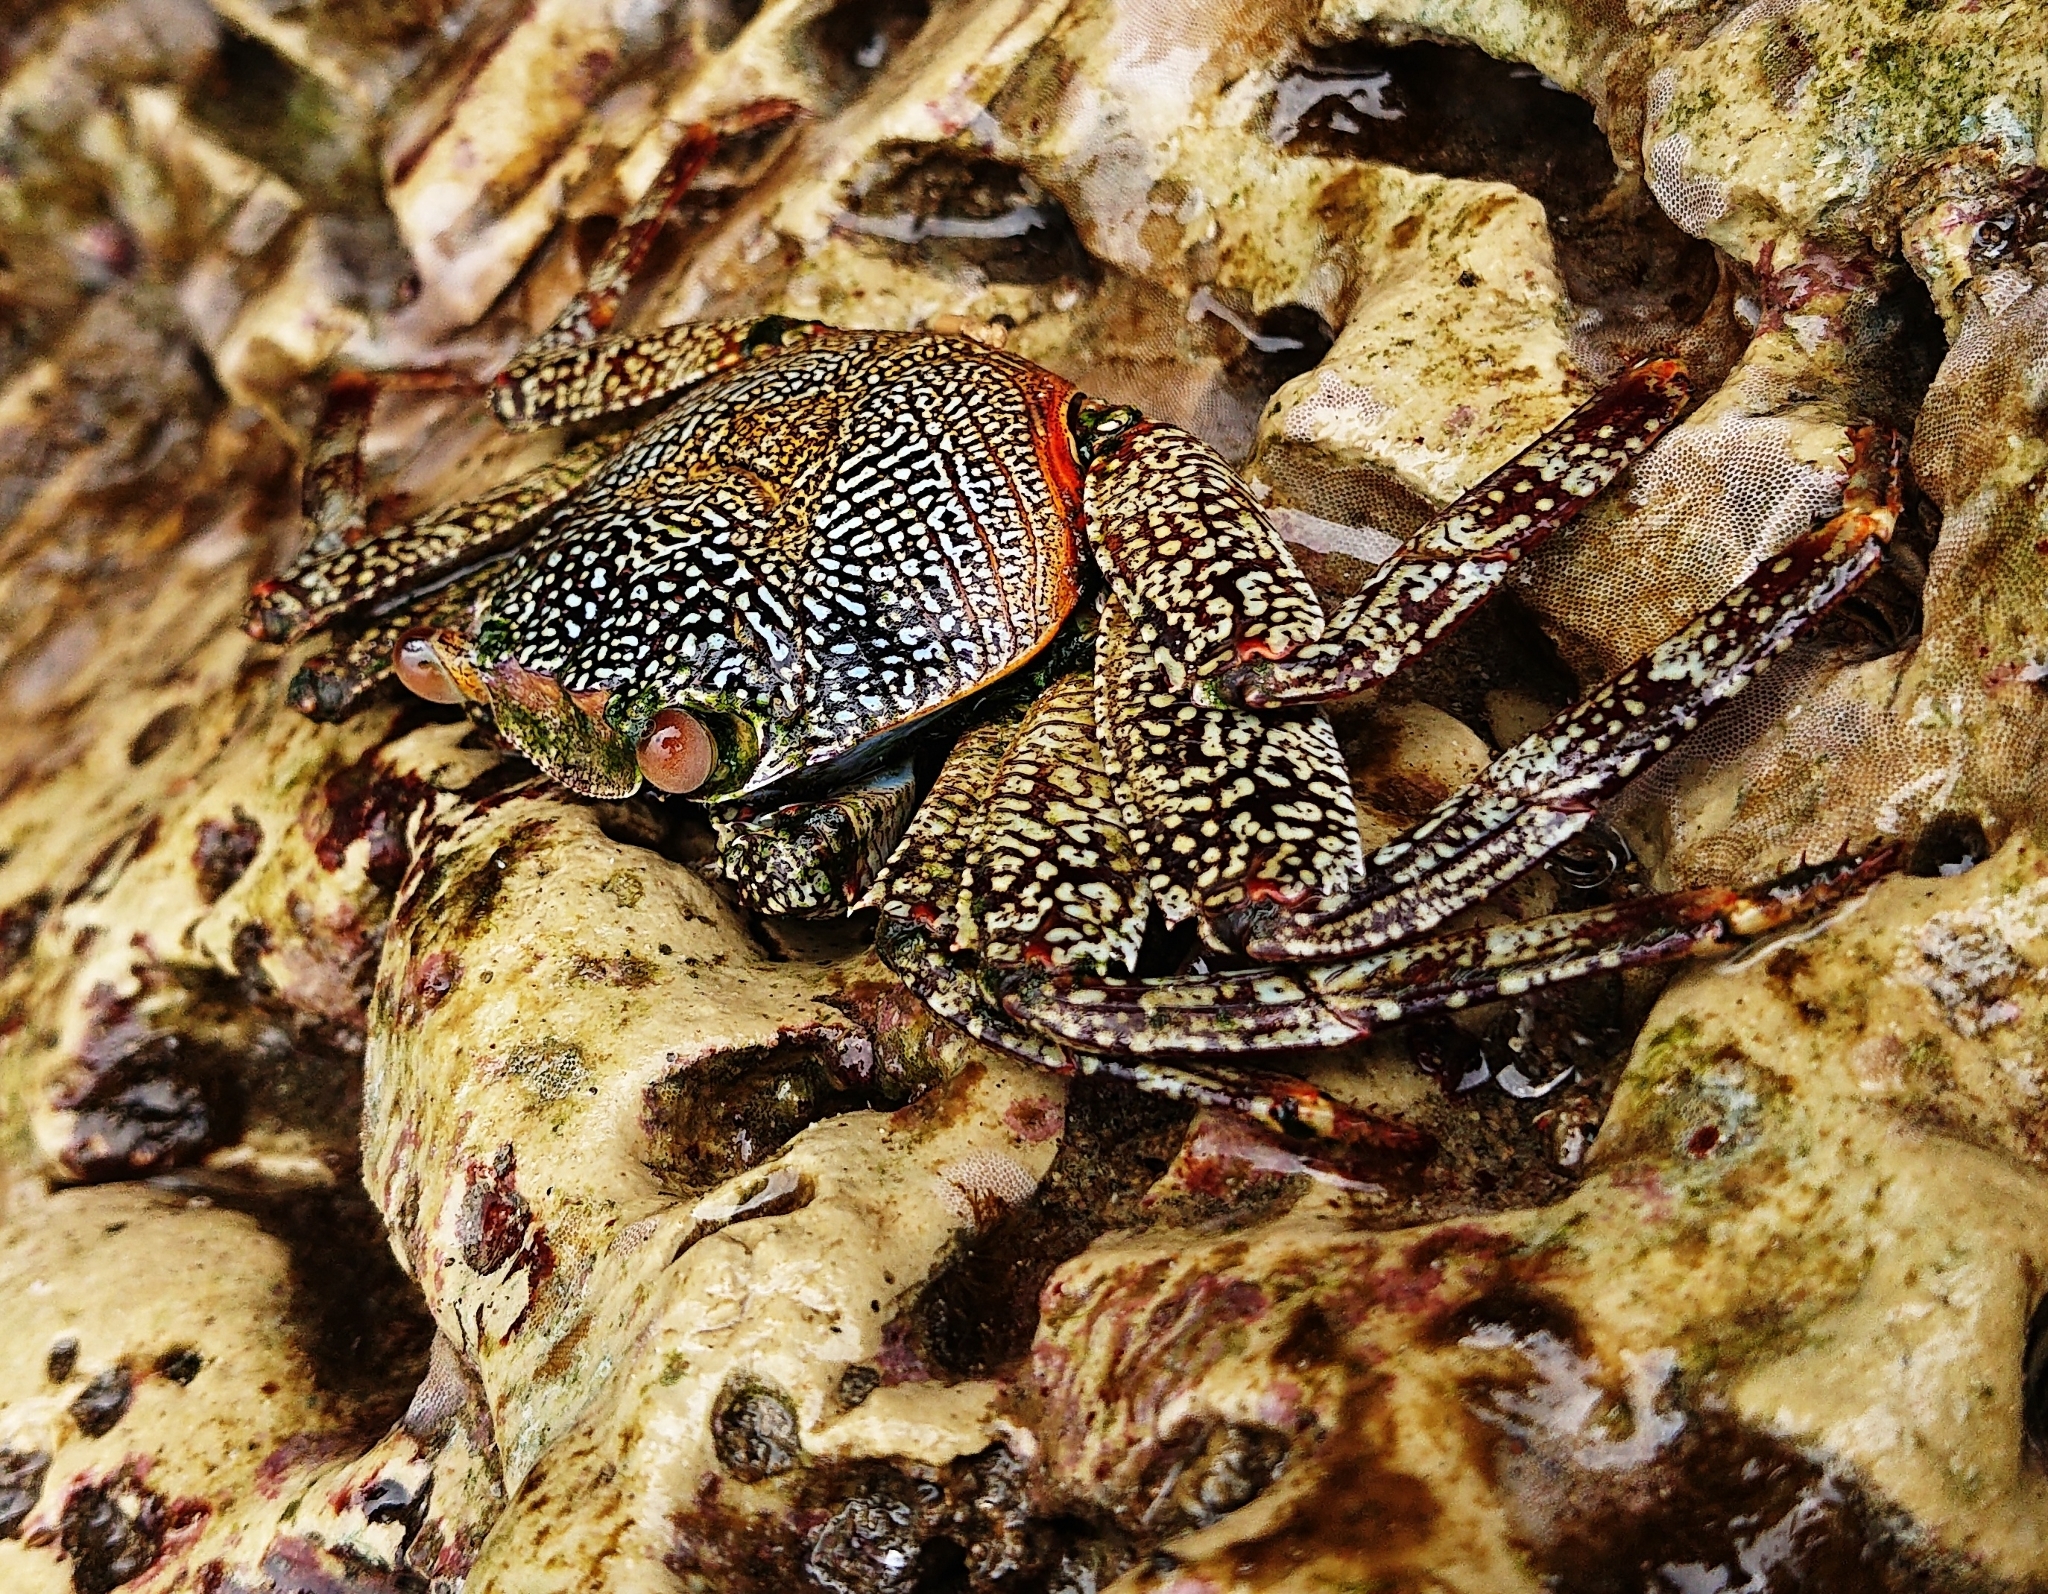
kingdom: Animalia
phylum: Arthropoda
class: Malacostraca
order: Decapoda
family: Grapsidae
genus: Grapsus
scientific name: Grapsus grapsus
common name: Sally lightfoot
